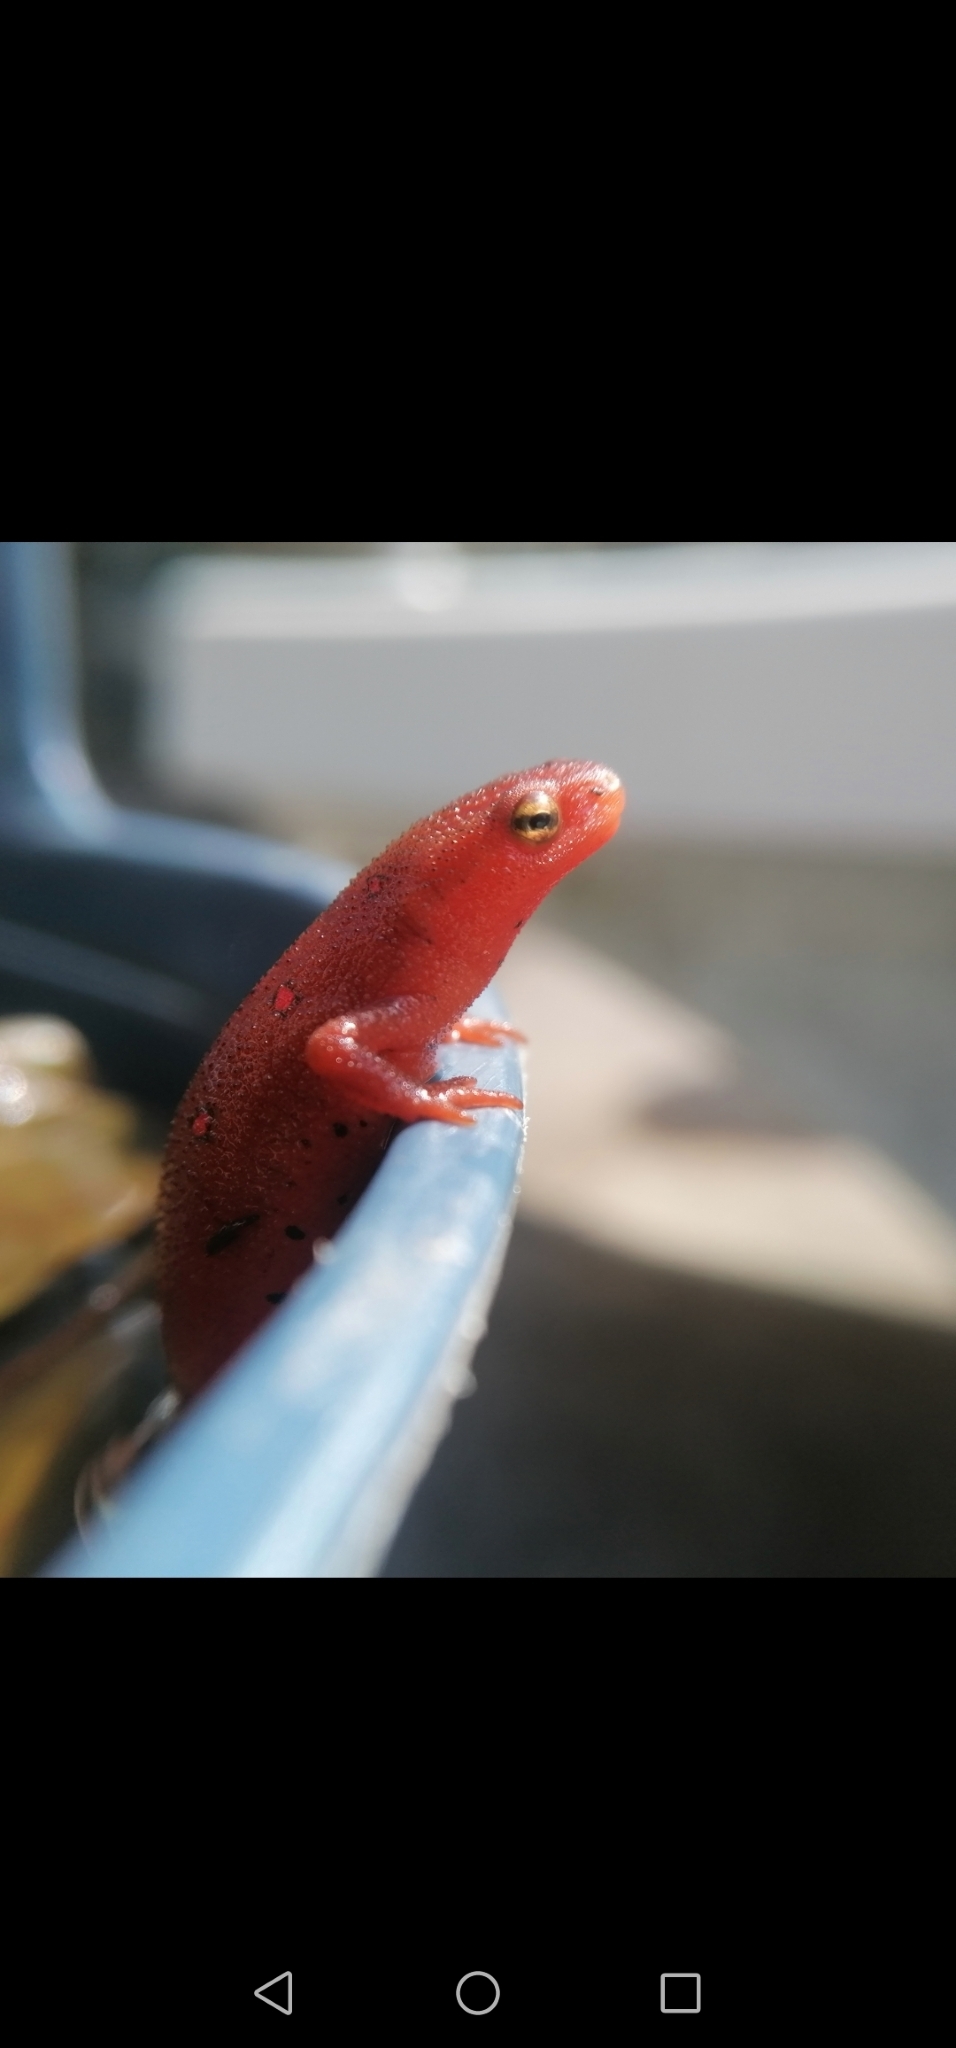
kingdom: Animalia
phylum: Chordata
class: Amphibia
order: Caudata
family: Salamandridae
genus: Notophthalmus
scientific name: Notophthalmus viridescens
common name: Eastern newt
